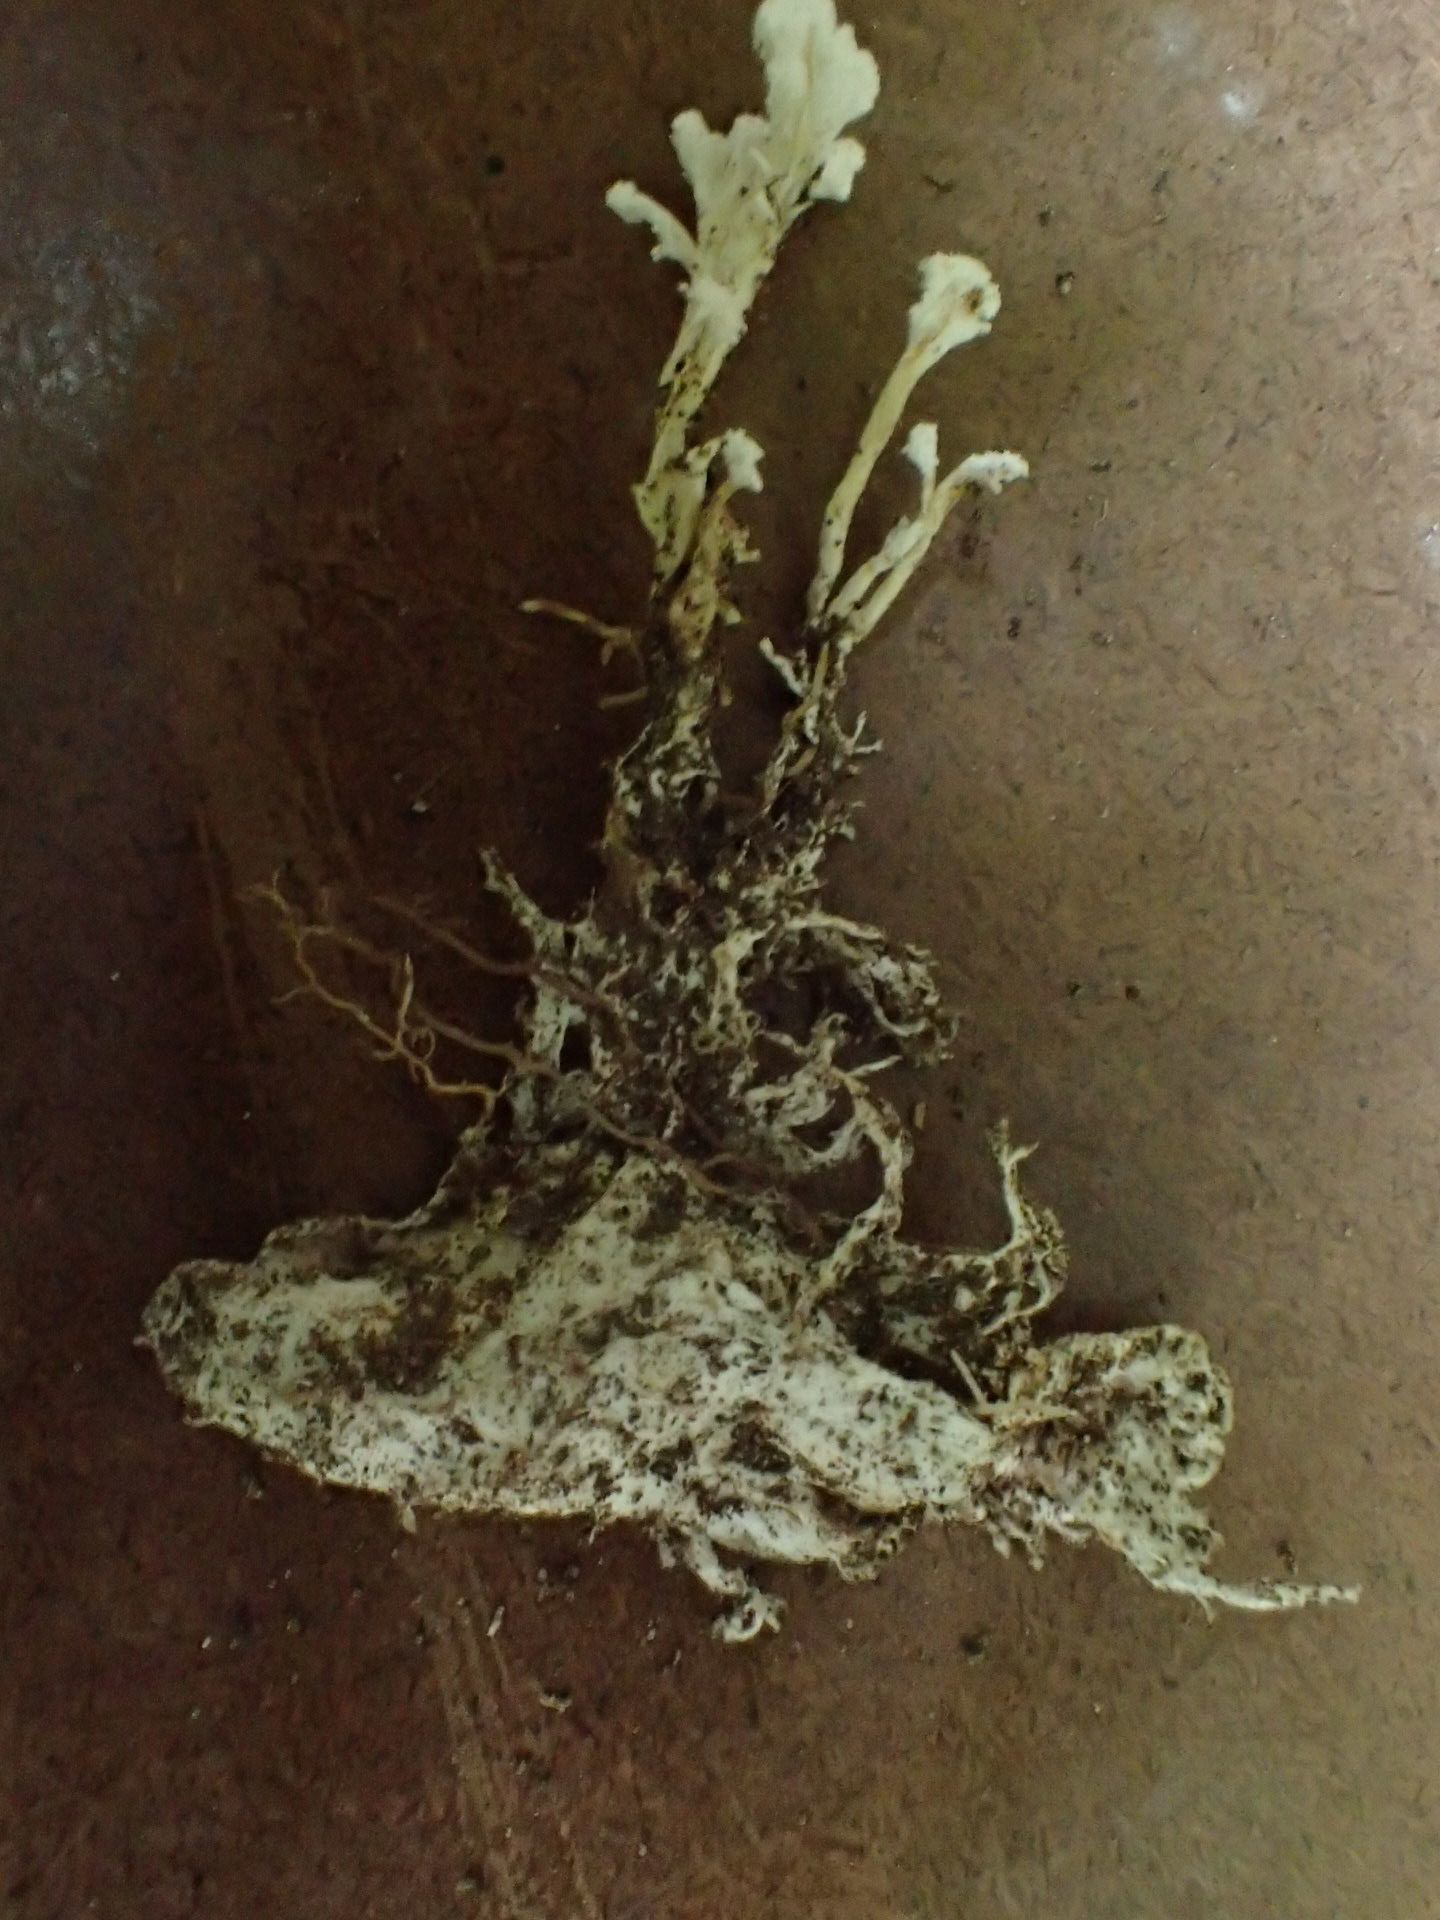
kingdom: Fungi
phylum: Ascomycota
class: Sordariomycetes
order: Hypocreales
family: Cordycipitaceae
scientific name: Cordycipitaceae
